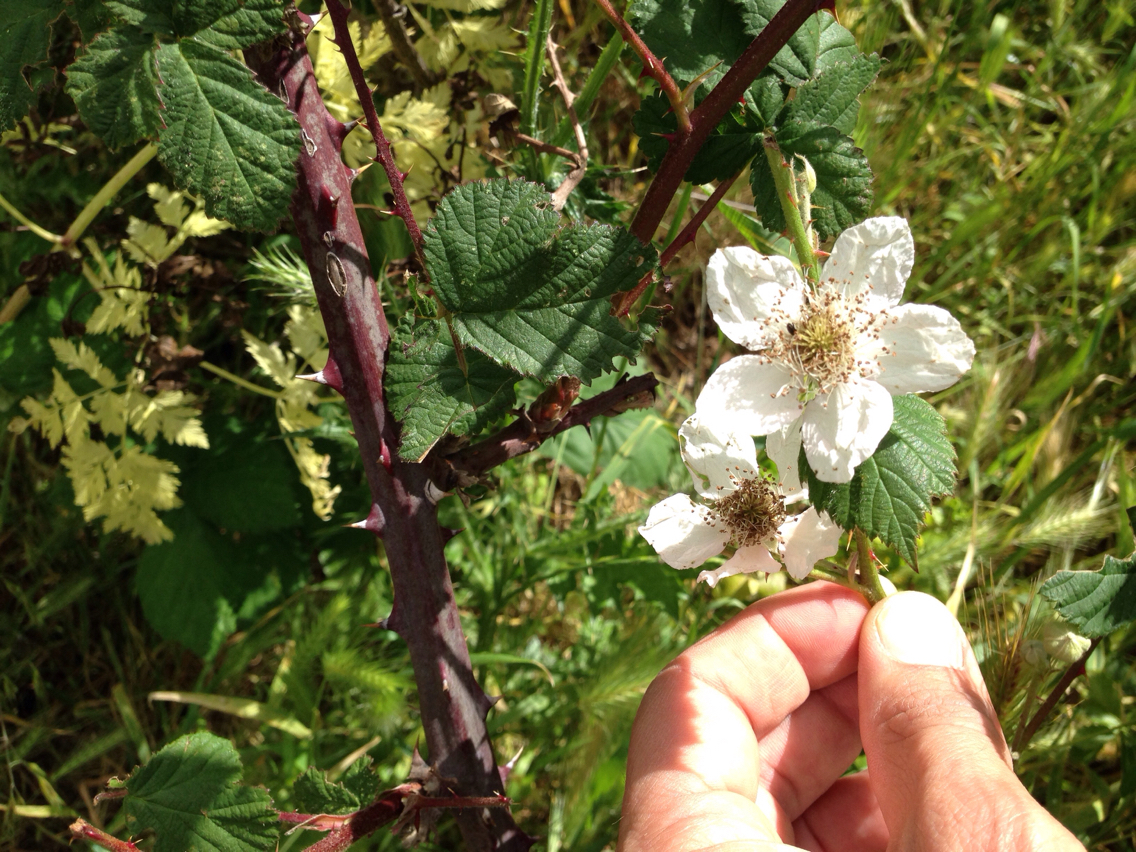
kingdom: Plantae
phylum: Tracheophyta
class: Magnoliopsida
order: Rosales
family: Rosaceae
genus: Rubus
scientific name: Rubus armeniacus
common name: Himalayan blackberry
